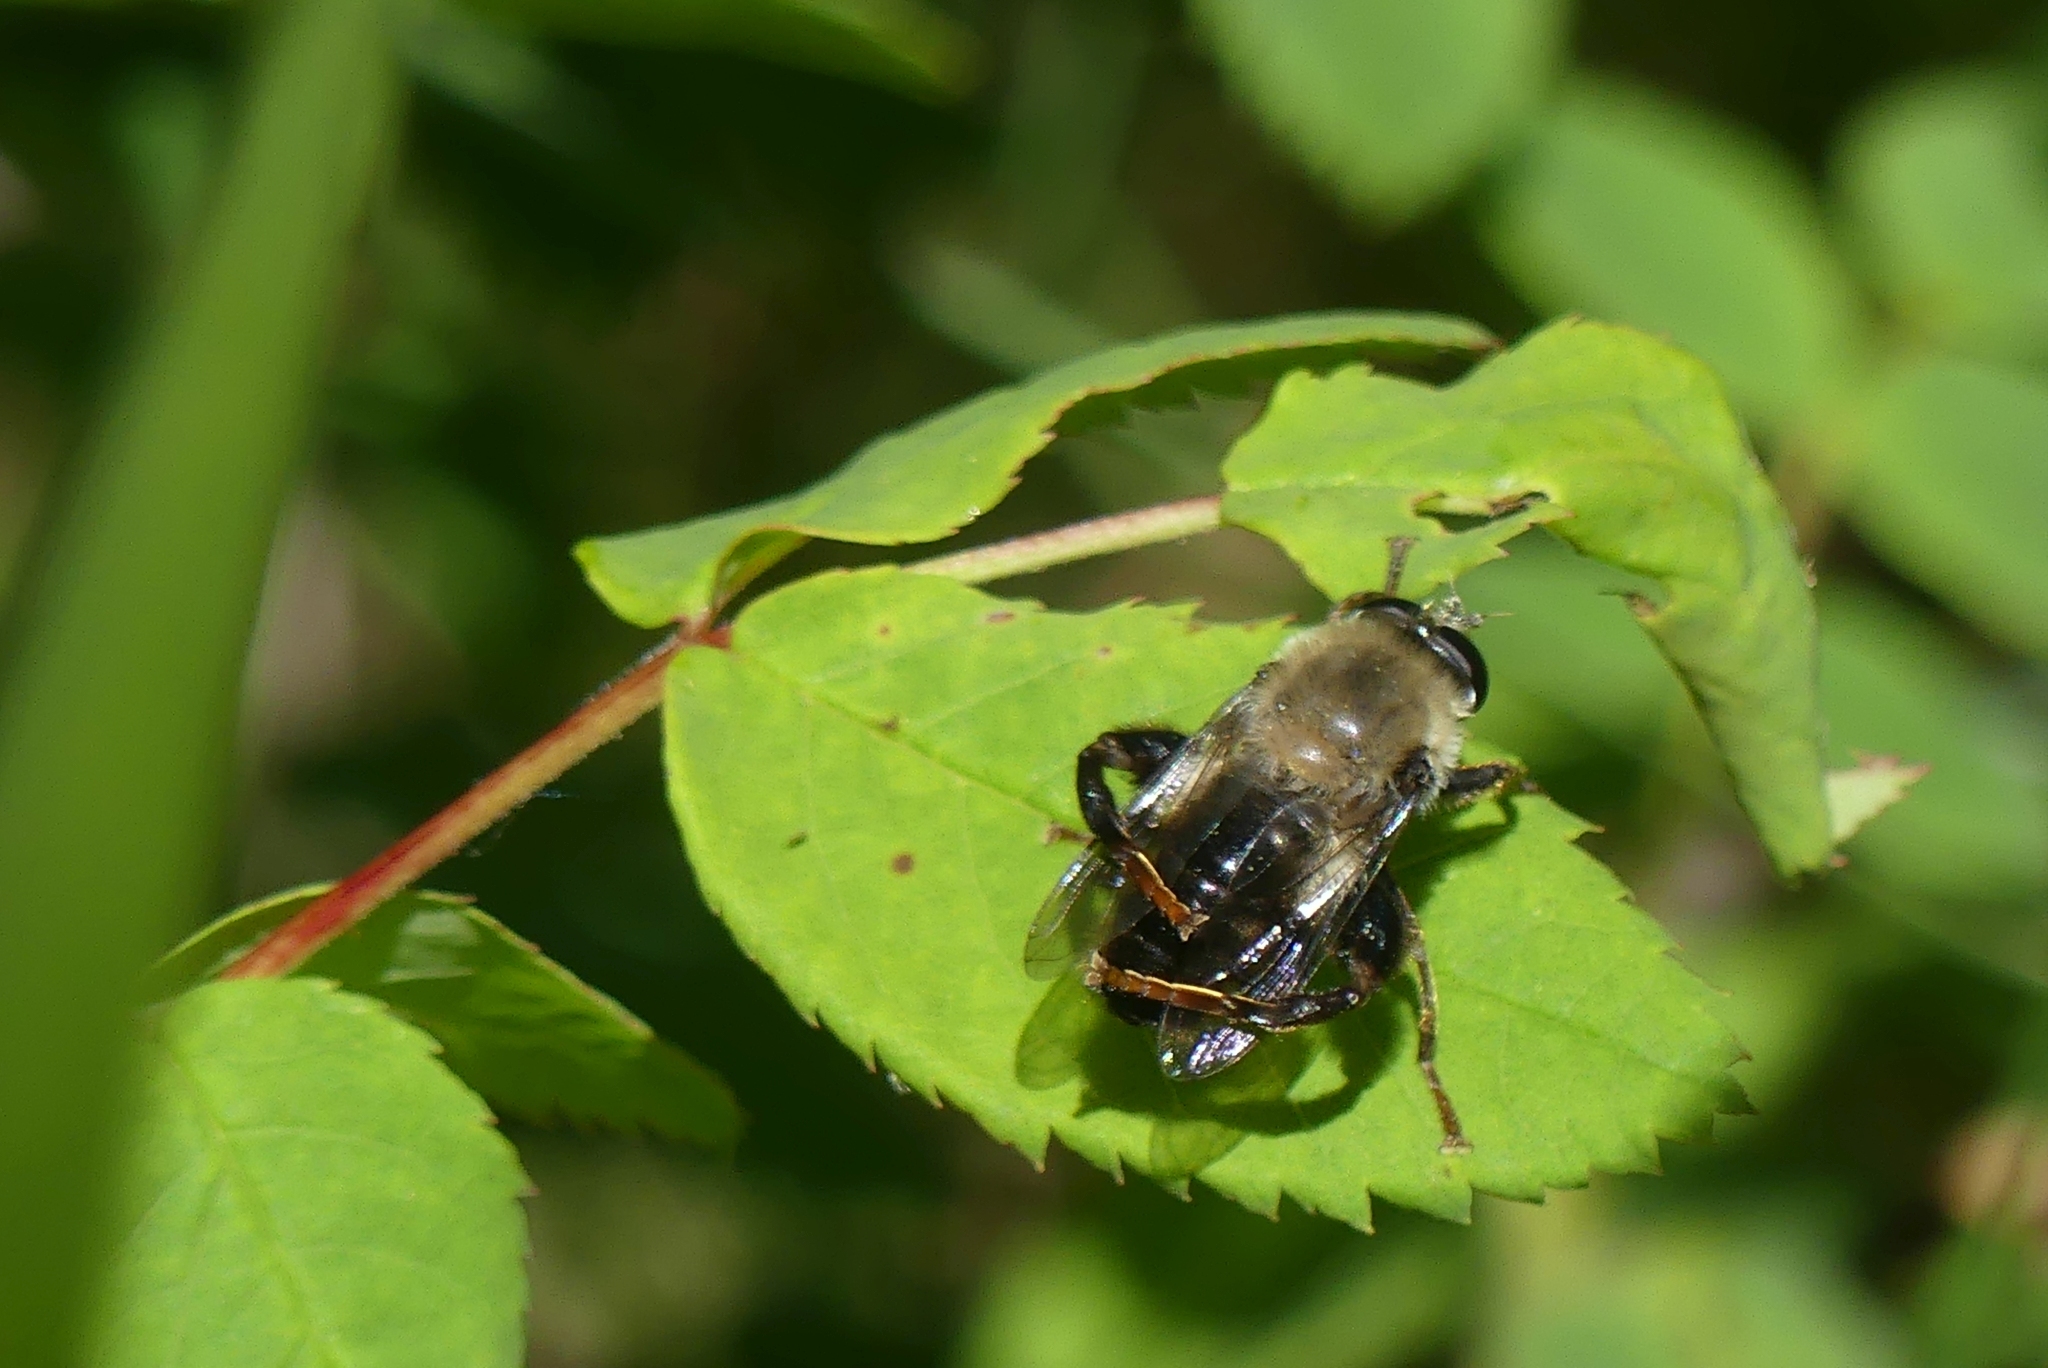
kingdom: Animalia
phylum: Arthropoda
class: Insecta
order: Diptera
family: Syrphidae
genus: Imatisma
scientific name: Imatisma sackeni
